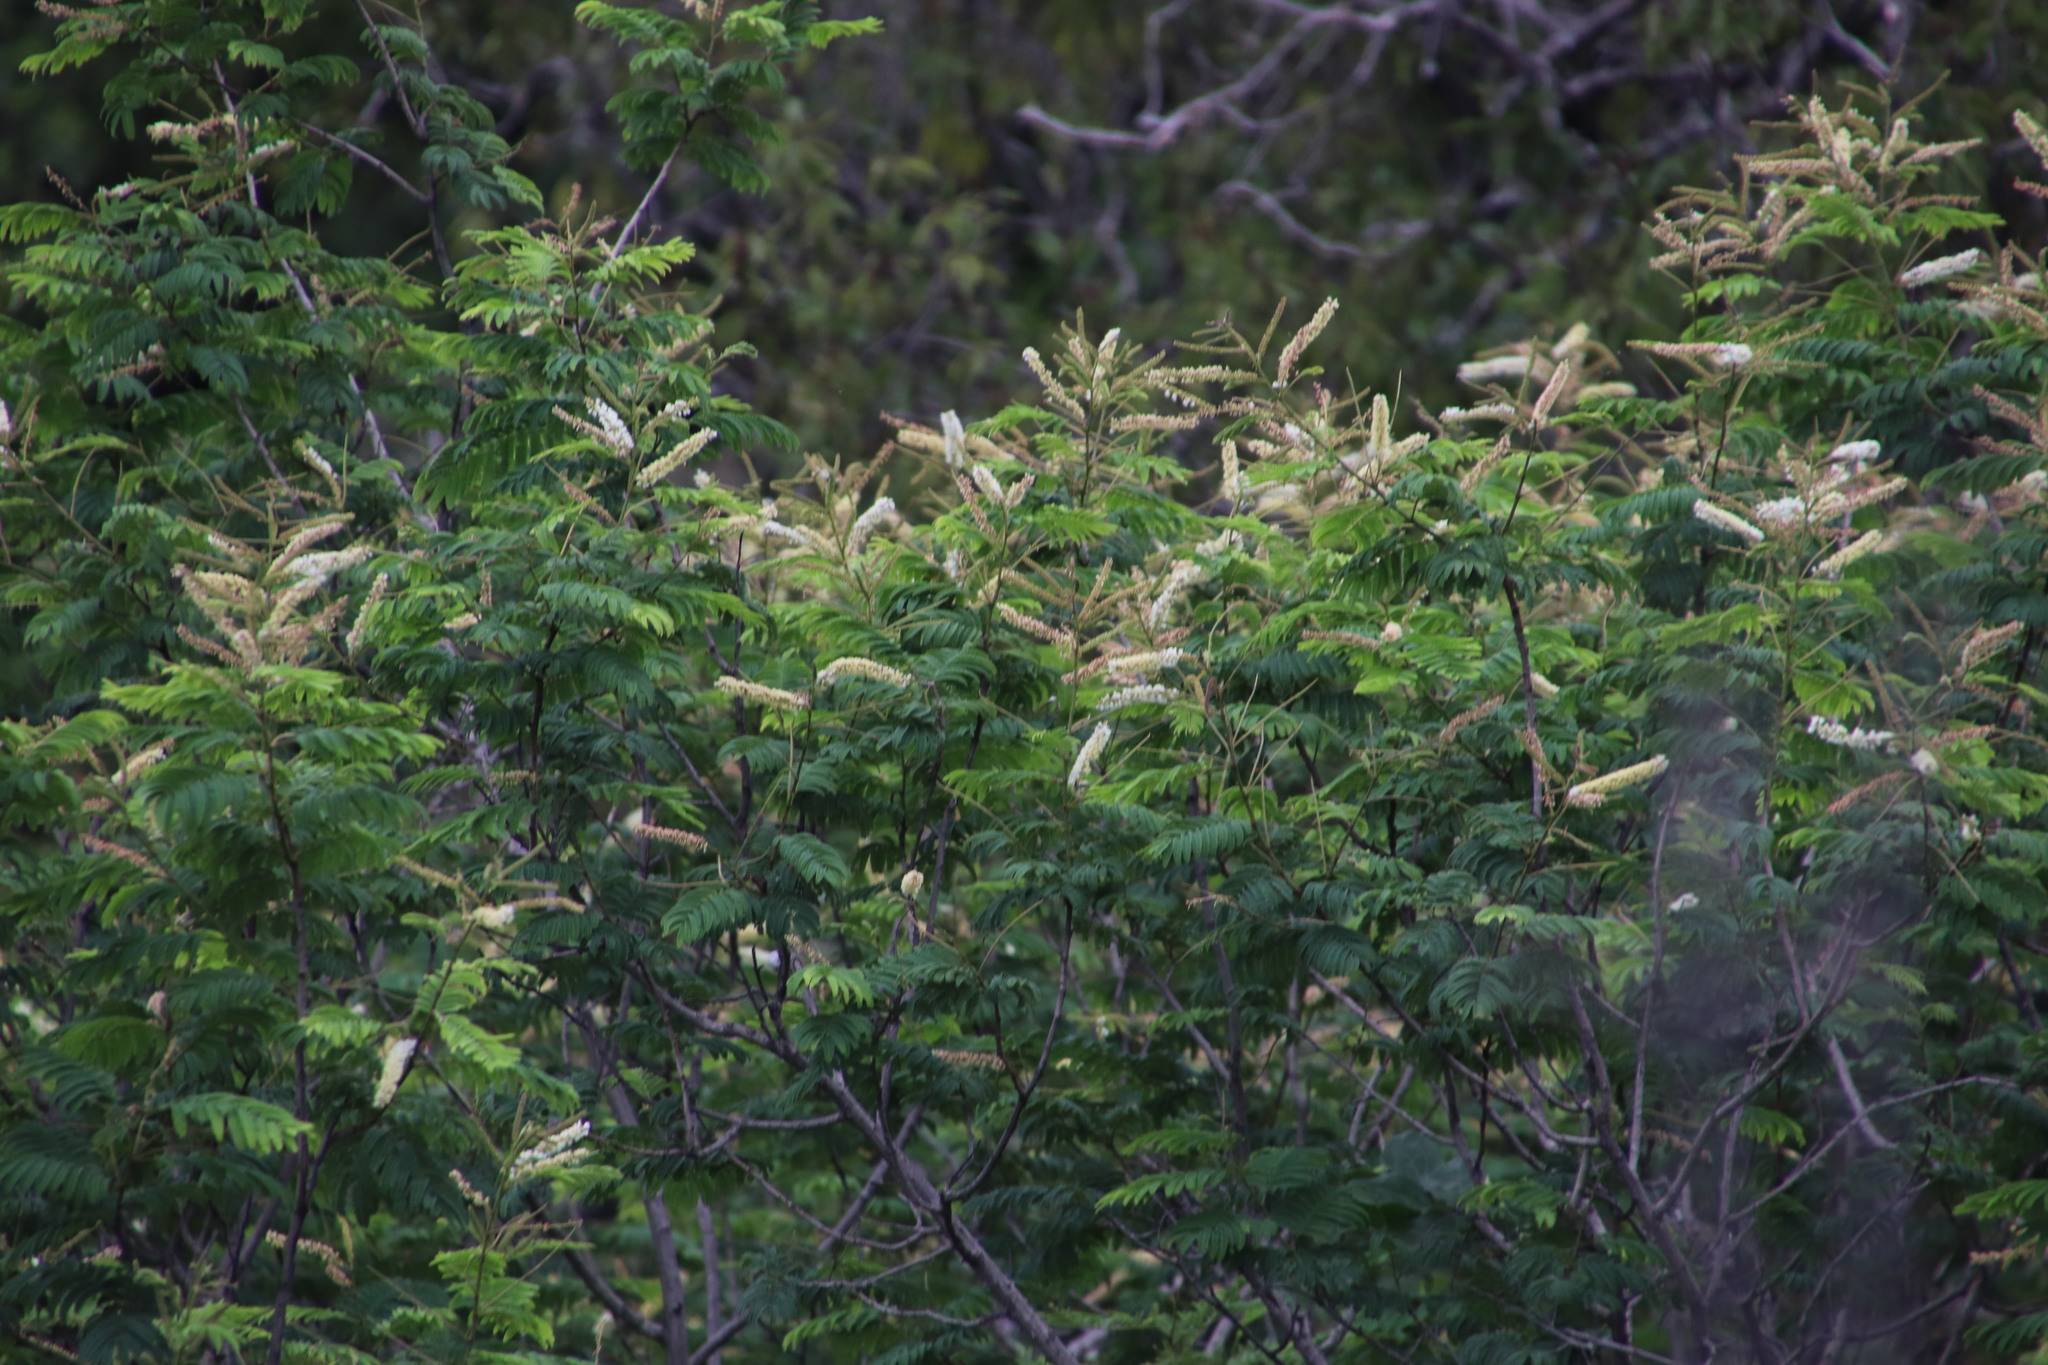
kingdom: Plantae
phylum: Tracheophyta
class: Magnoliopsida
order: Fabales
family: Fabaceae
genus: Senegalia
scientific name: Senegalia ataxacantha
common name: Flame acacia
